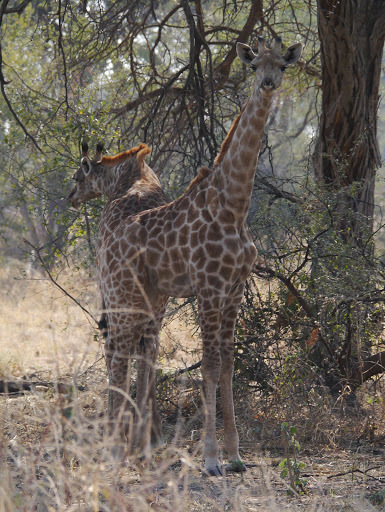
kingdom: Animalia
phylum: Chordata
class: Mammalia
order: Artiodactyla
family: Giraffidae
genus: Giraffa
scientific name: Giraffa giraffa
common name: Southern giraffe
